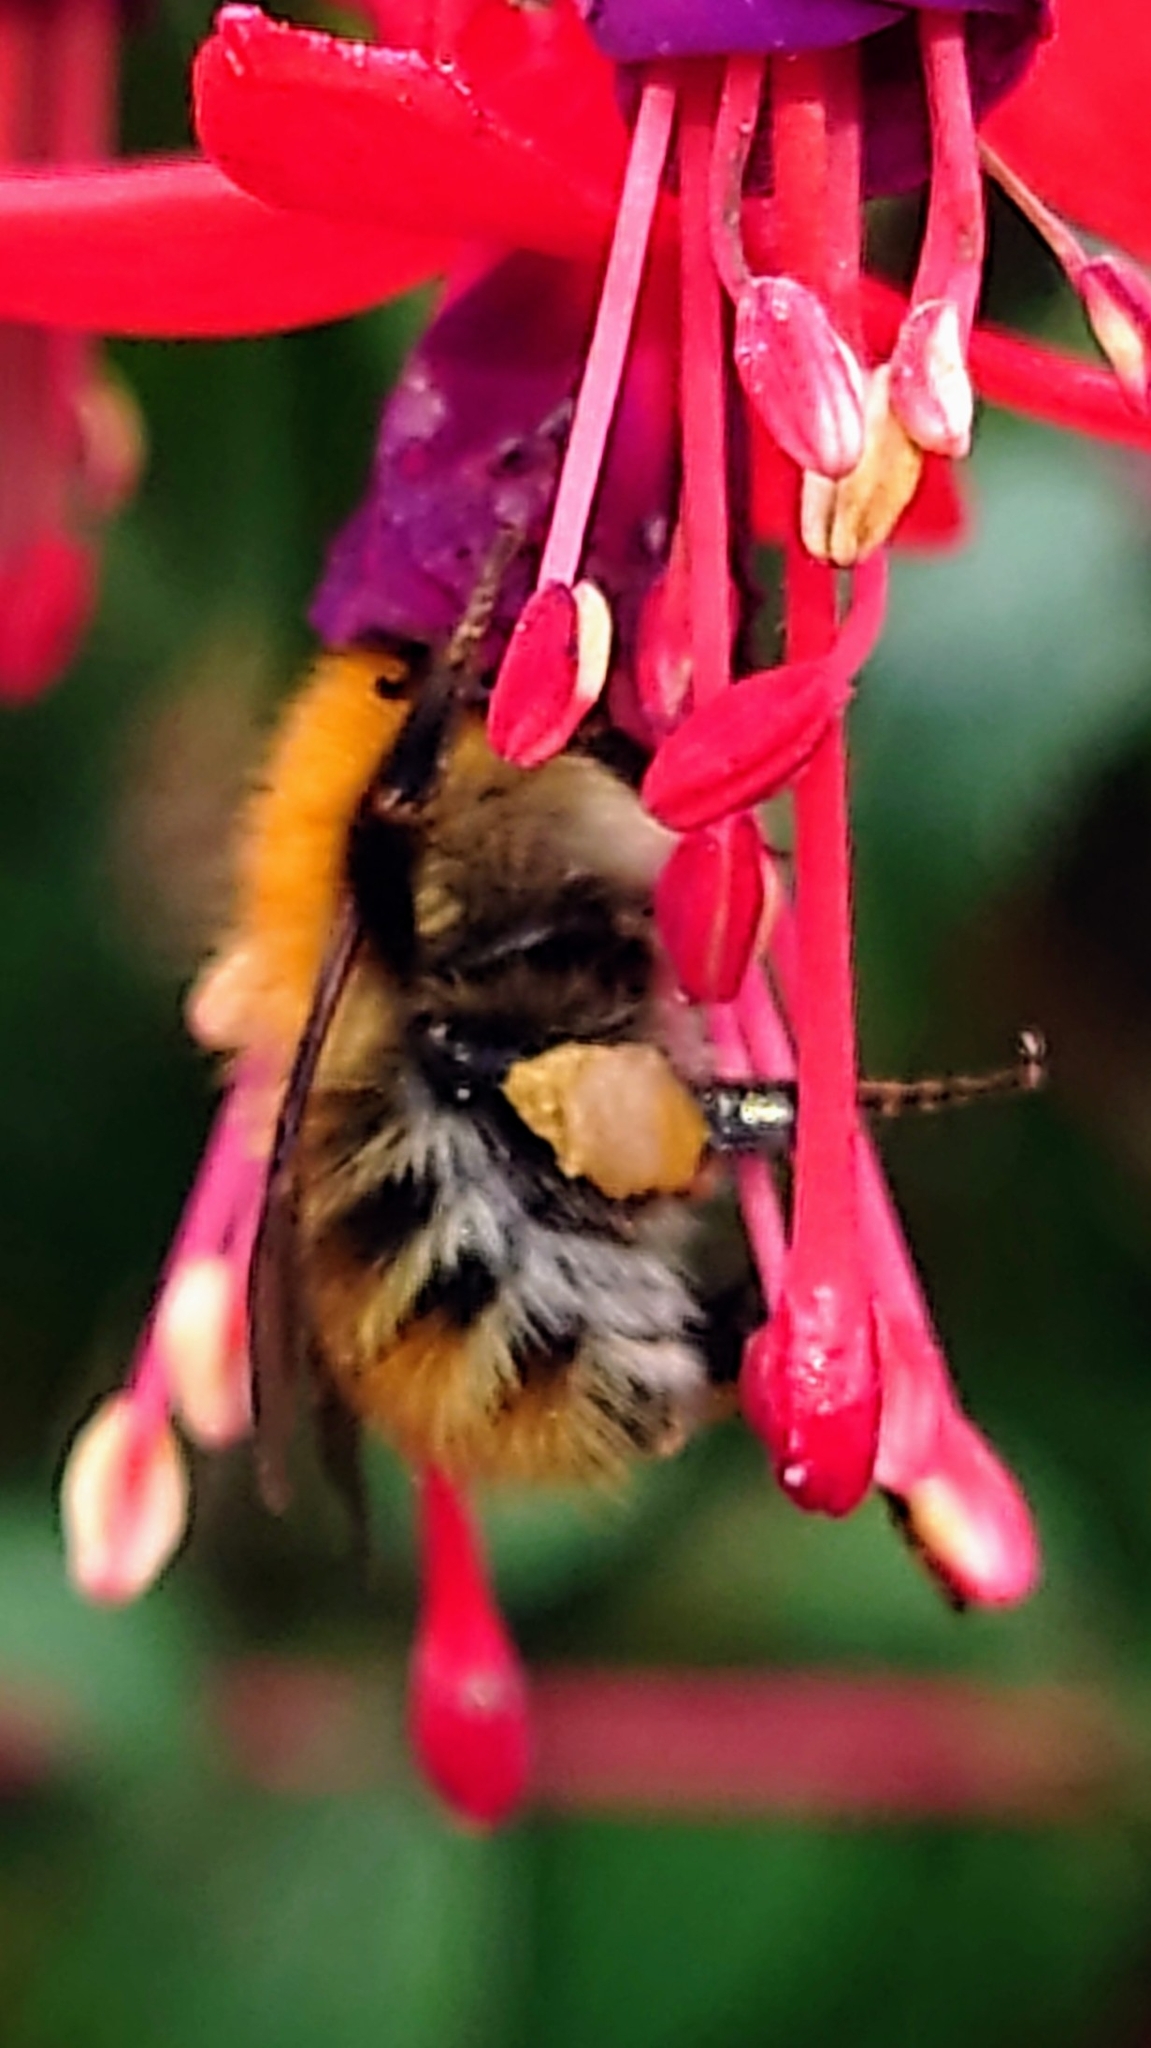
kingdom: Animalia
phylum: Arthropoda
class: Insecta
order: Hymenoptera
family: Apidae
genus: Bombus
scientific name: Bombus pascuorum
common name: Common carder bee
